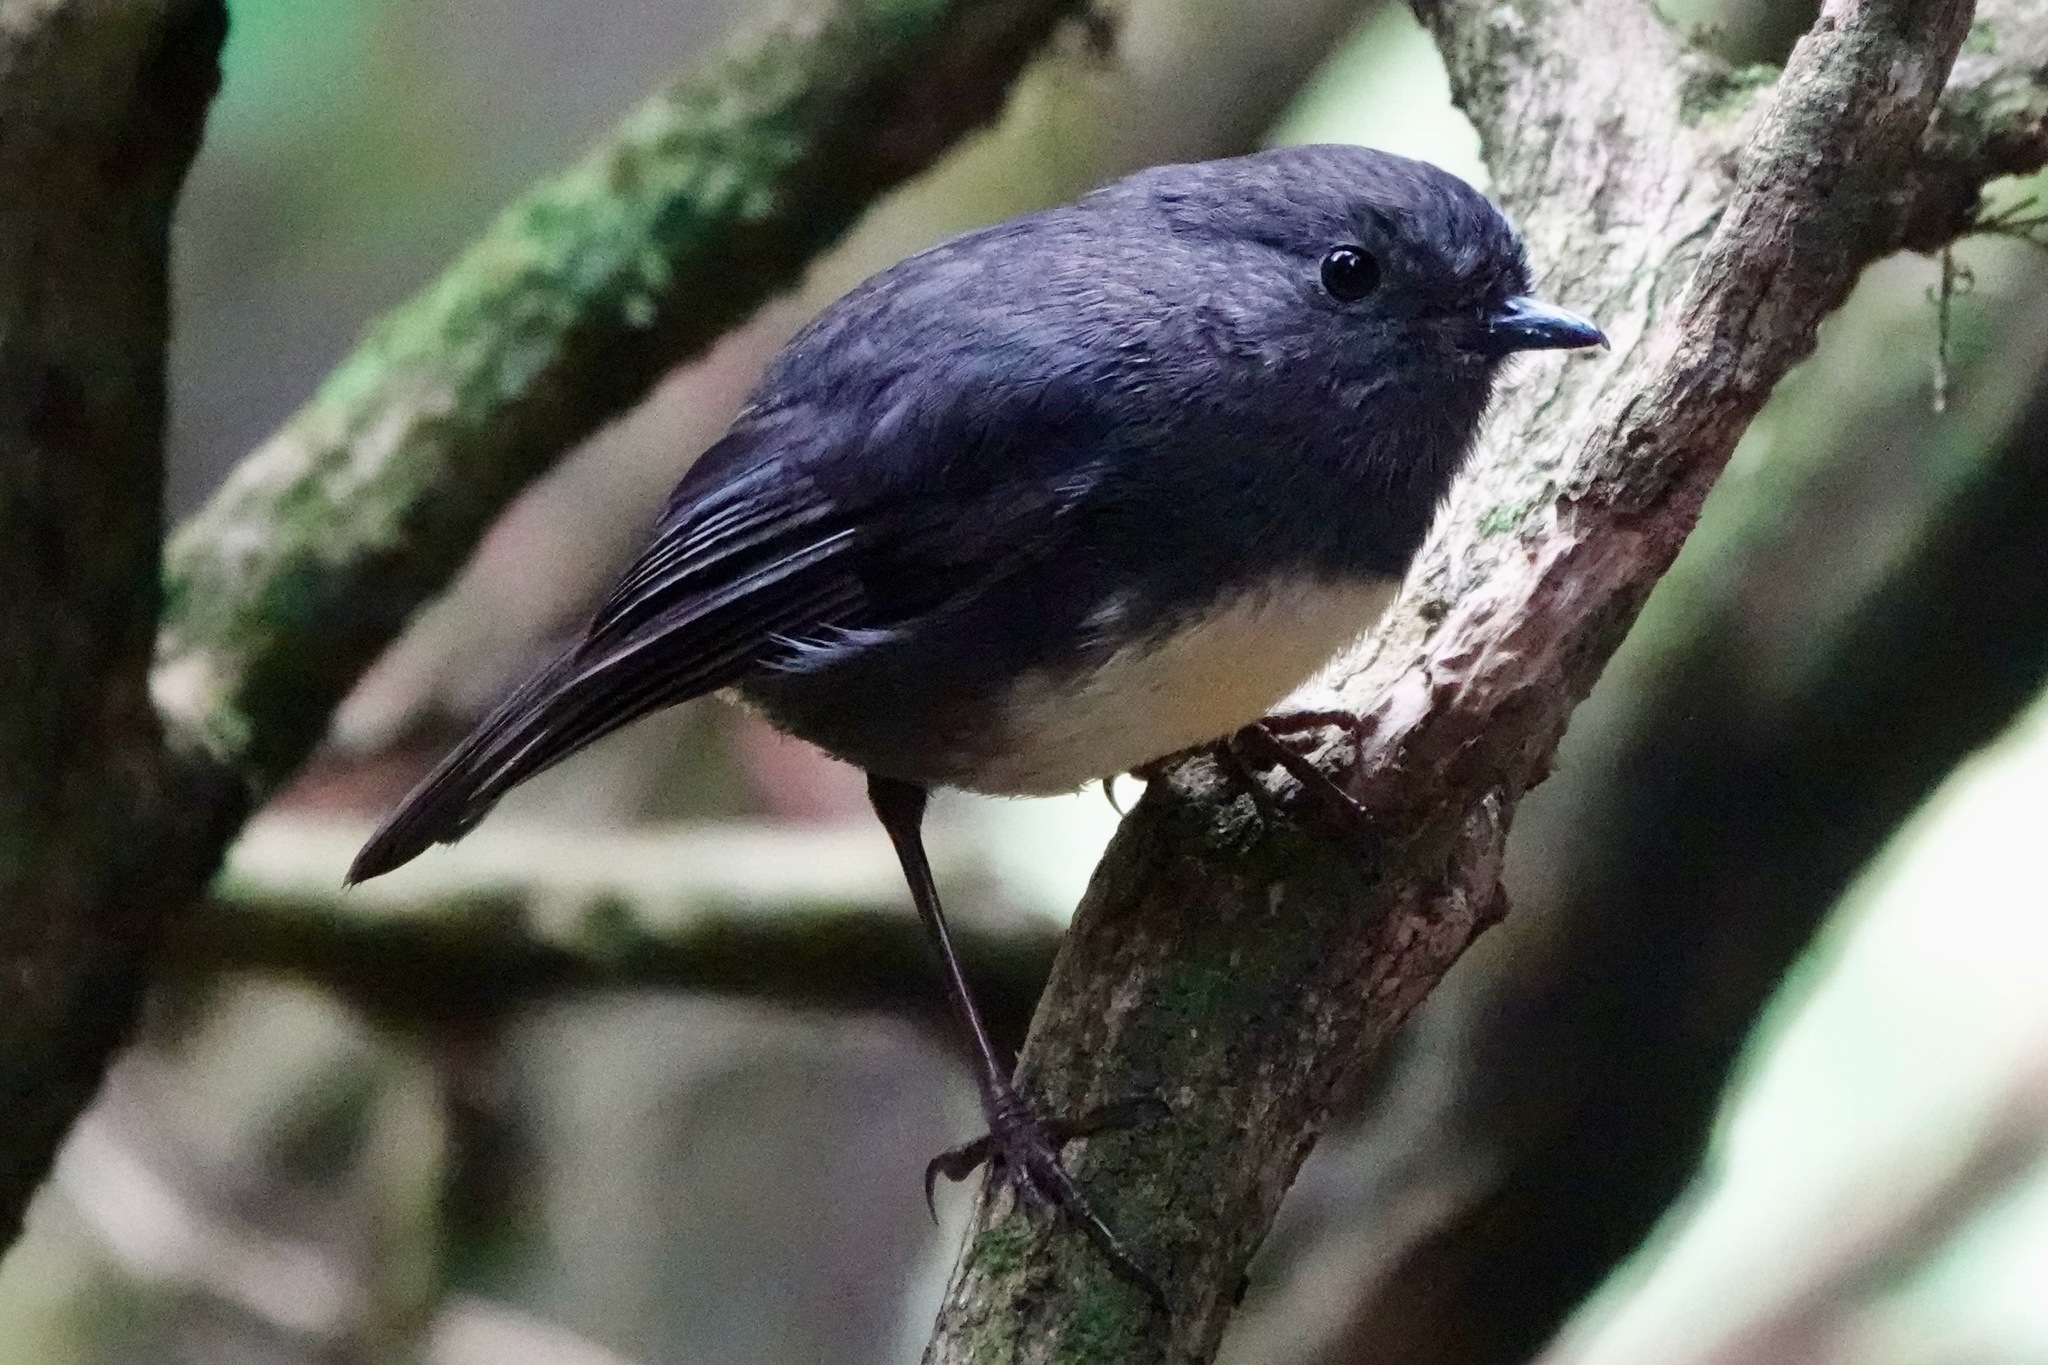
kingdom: Animalia
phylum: Chordata
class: Aves
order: Passeriformes
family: Petroicidae
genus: Petroica
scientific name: Petroica australis
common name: New zealand robin
